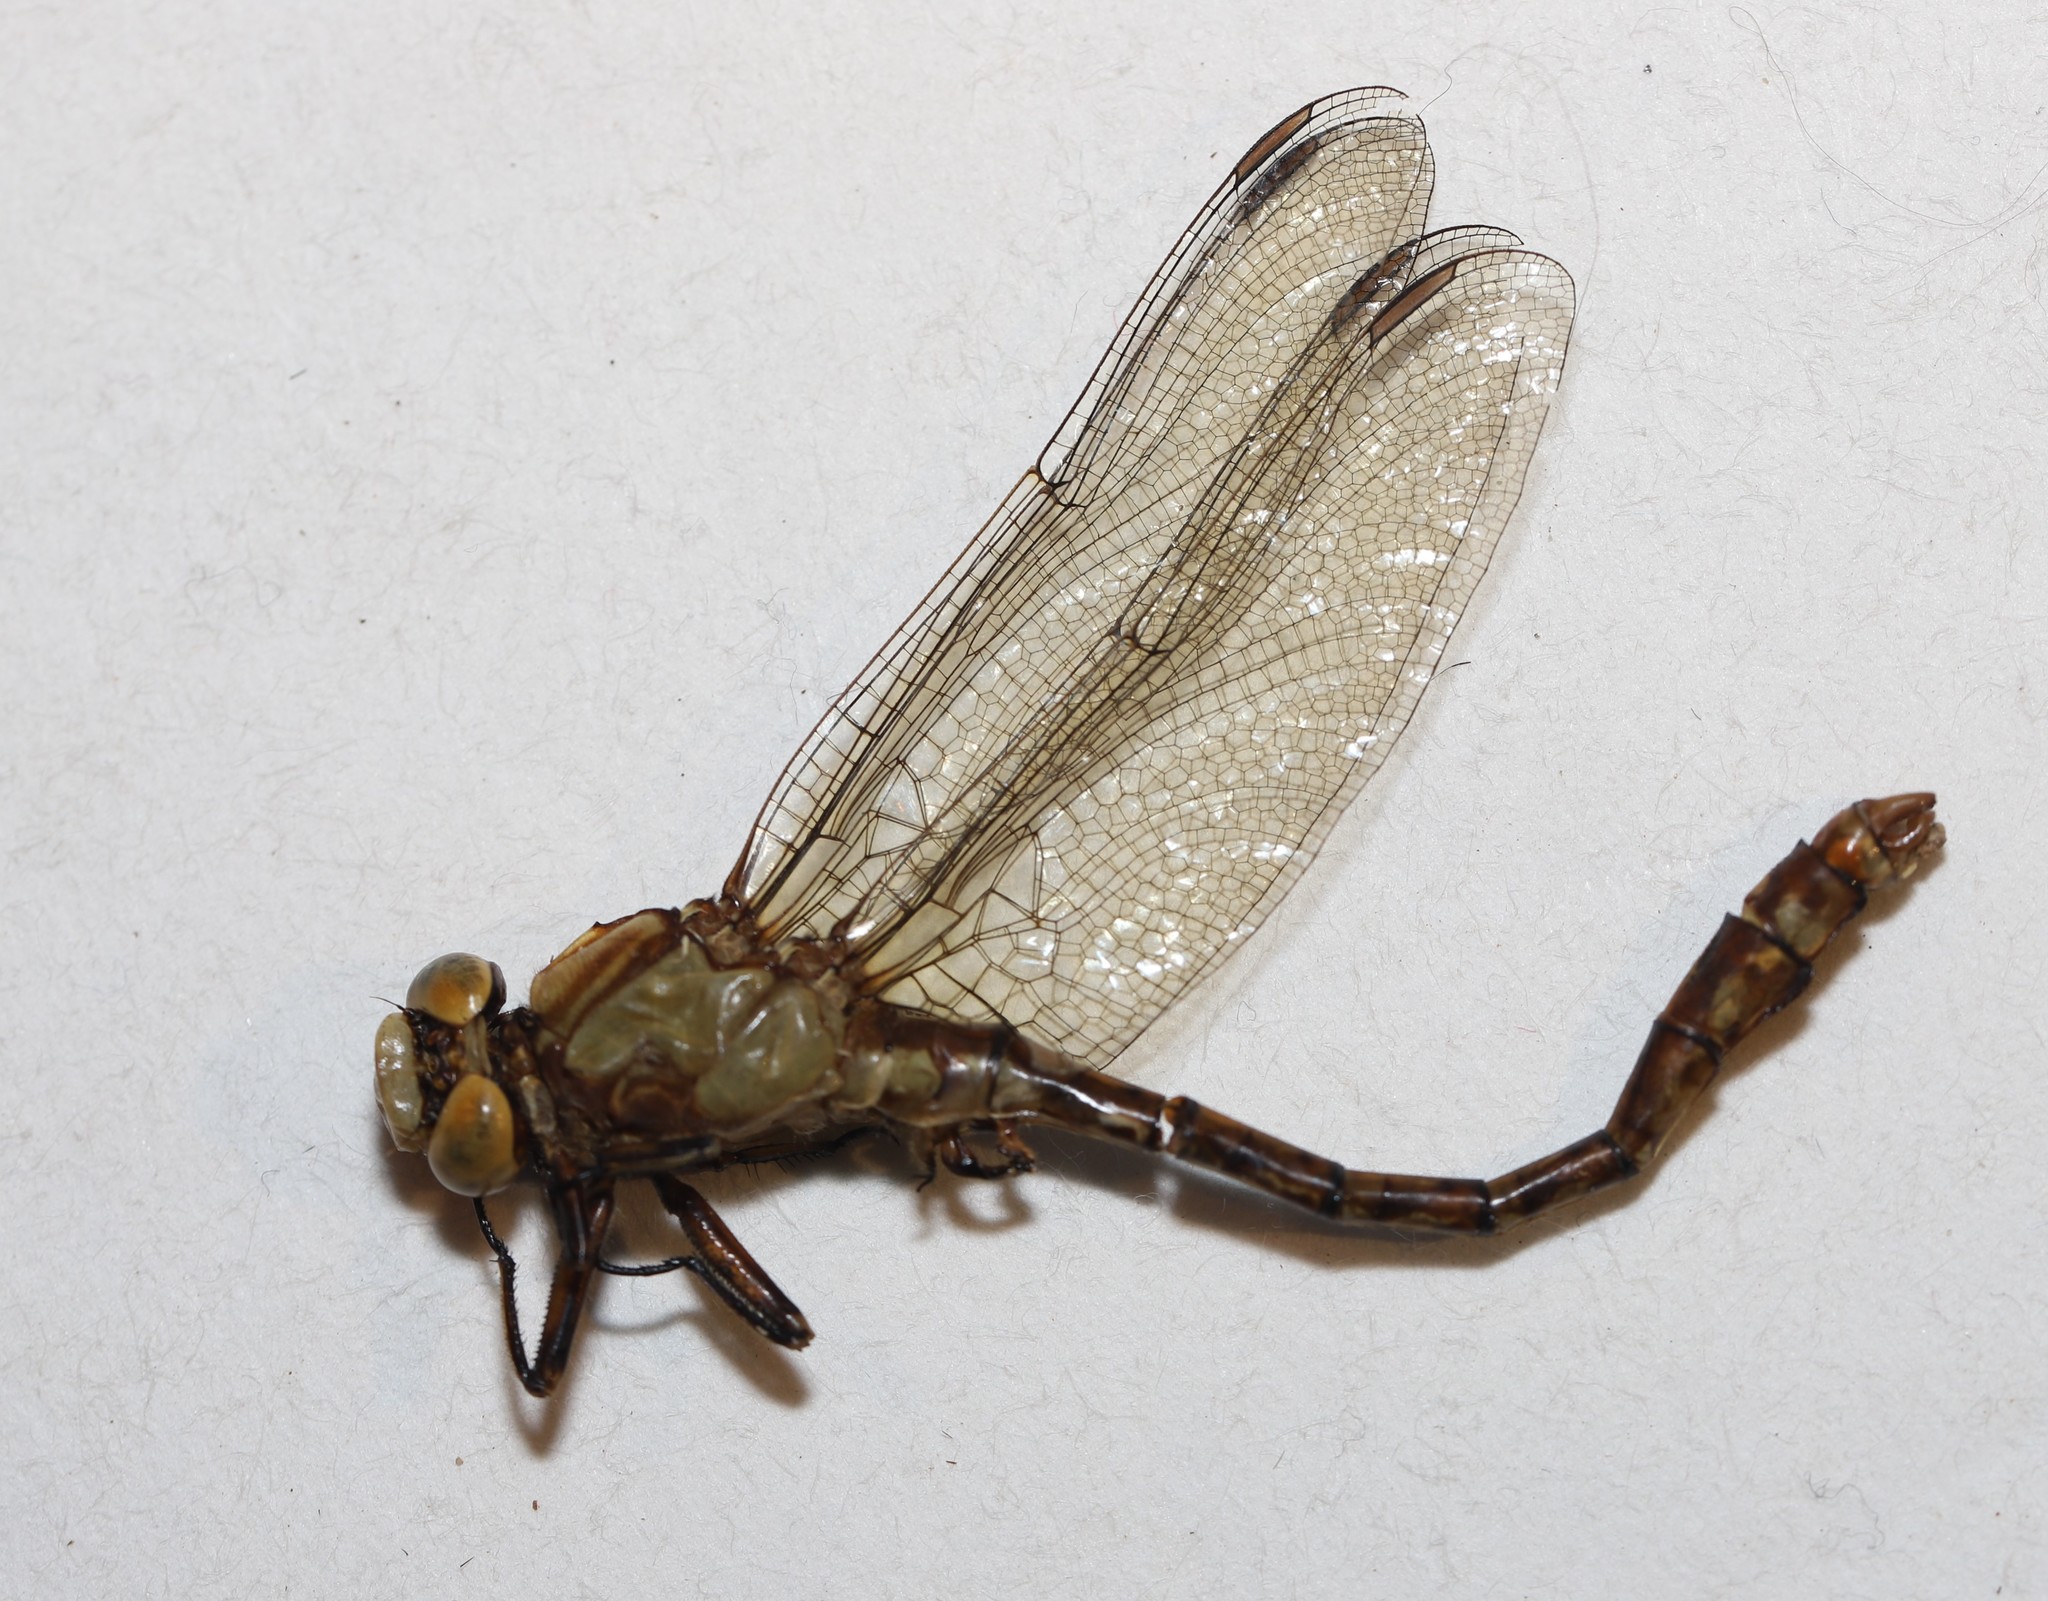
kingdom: Animalia
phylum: Arthropoda
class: Insecta
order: Odonata
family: Gomphidae
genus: Ophiogomphus
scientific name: Ophiogomphus rupinsulensis
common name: Rusty snaketail
